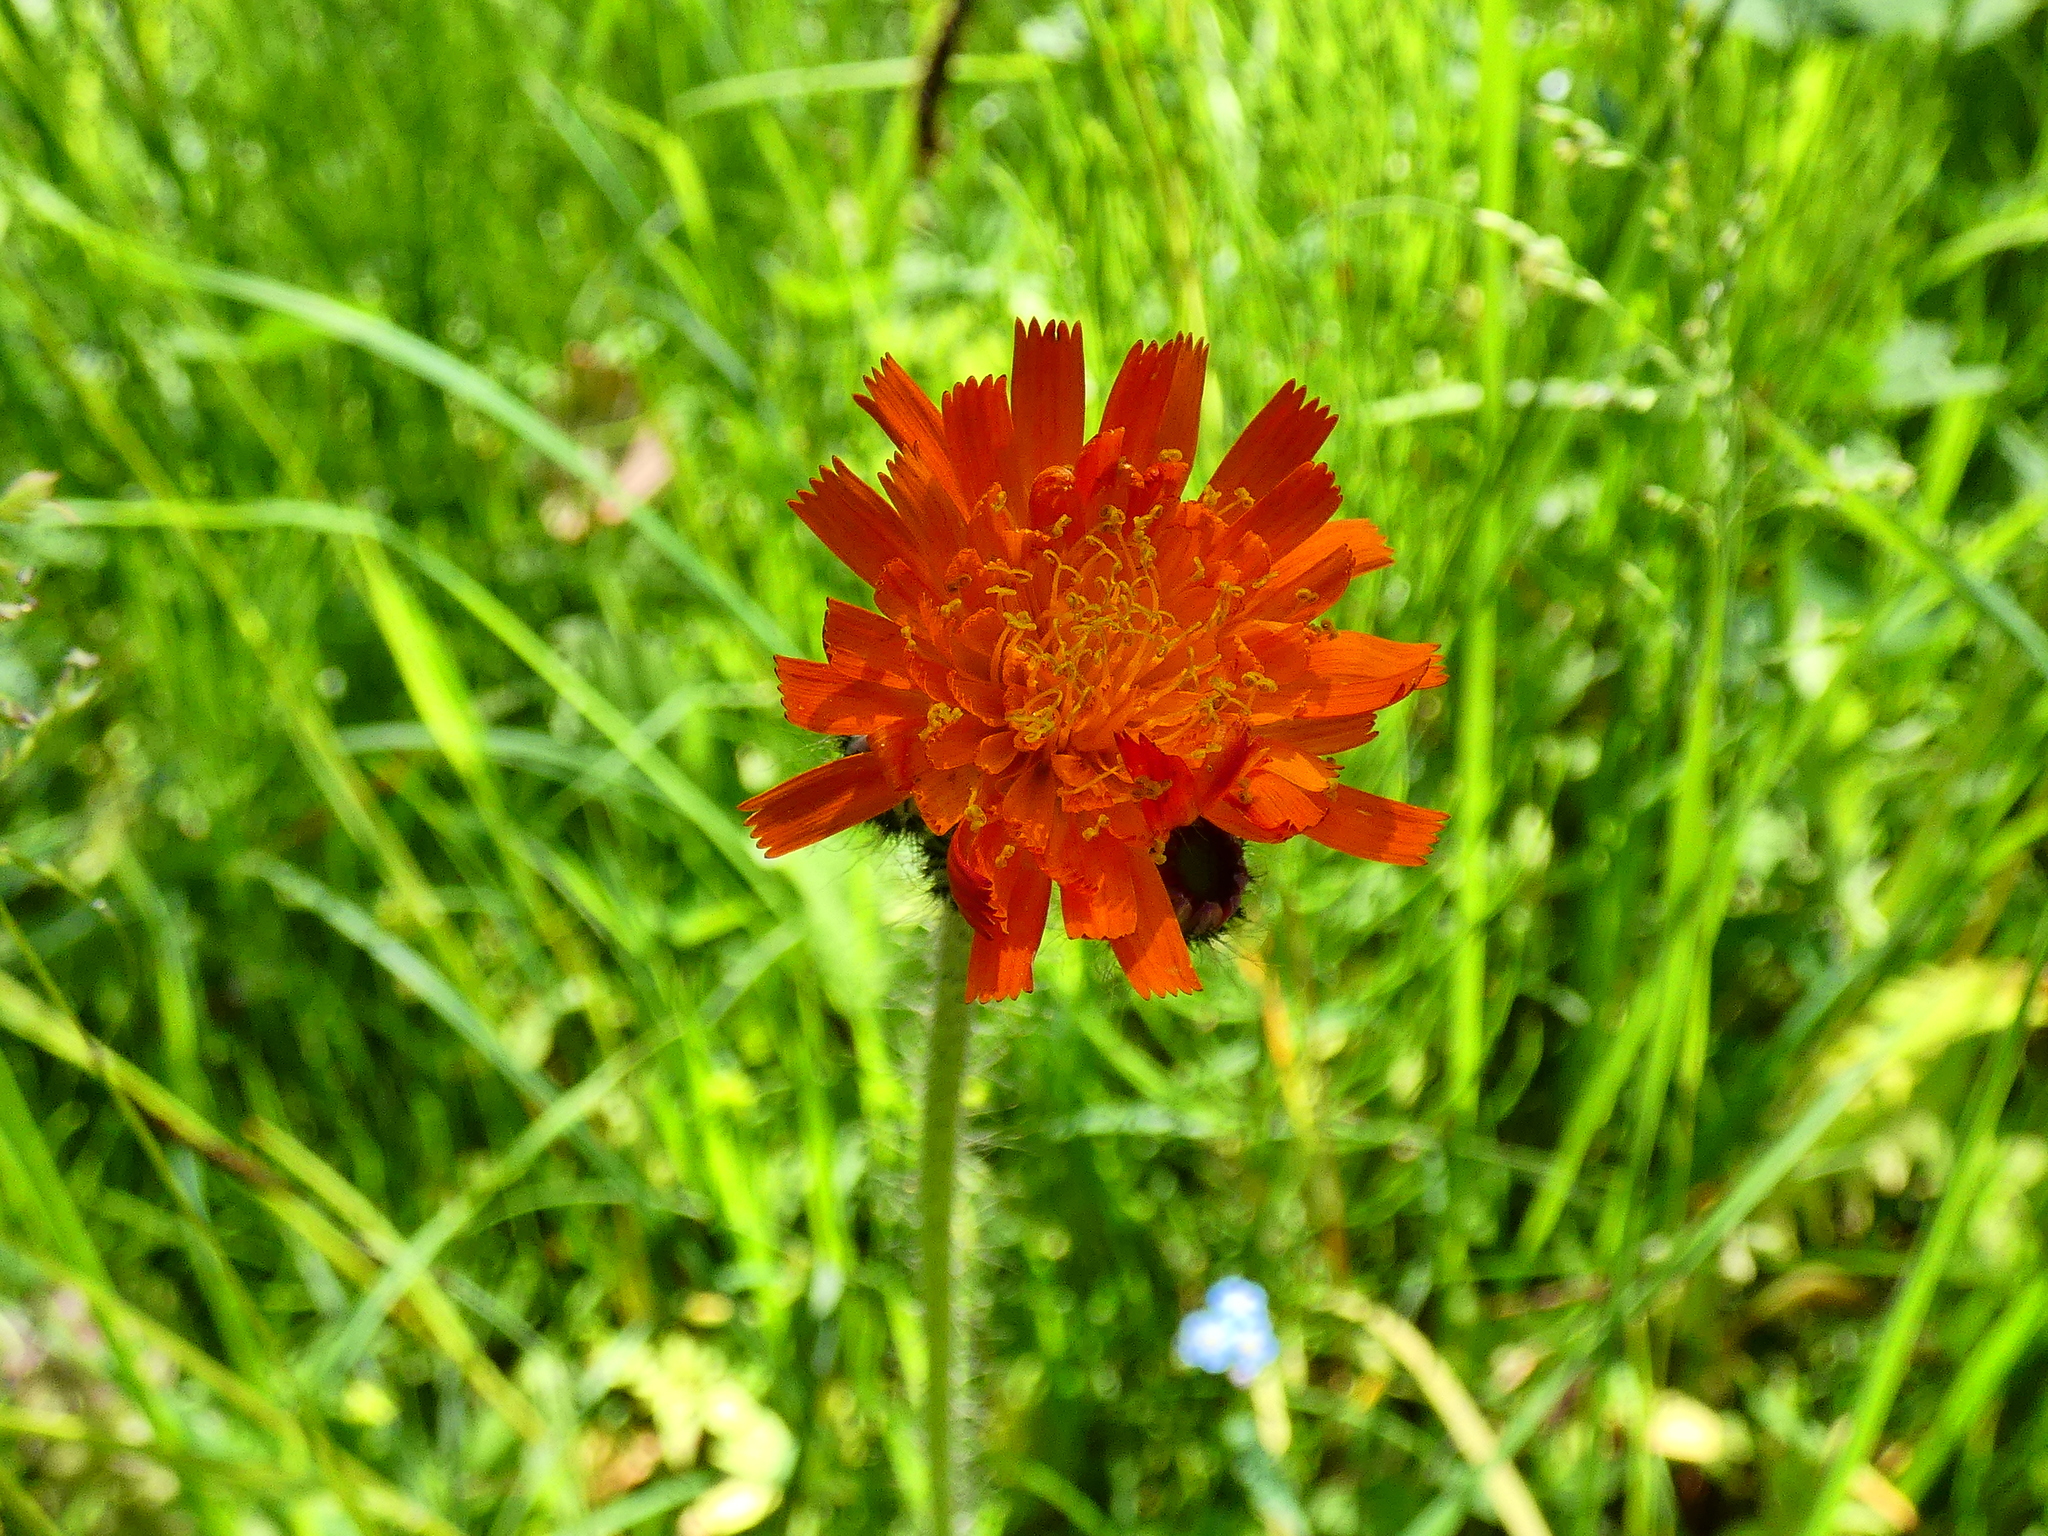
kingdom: Plantae
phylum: Tracheophyta
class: Magnoliopsida
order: Asterales
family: Asteraceae
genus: Pilosella
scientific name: Pilosella aurantiaca
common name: Fox-and-cubs
